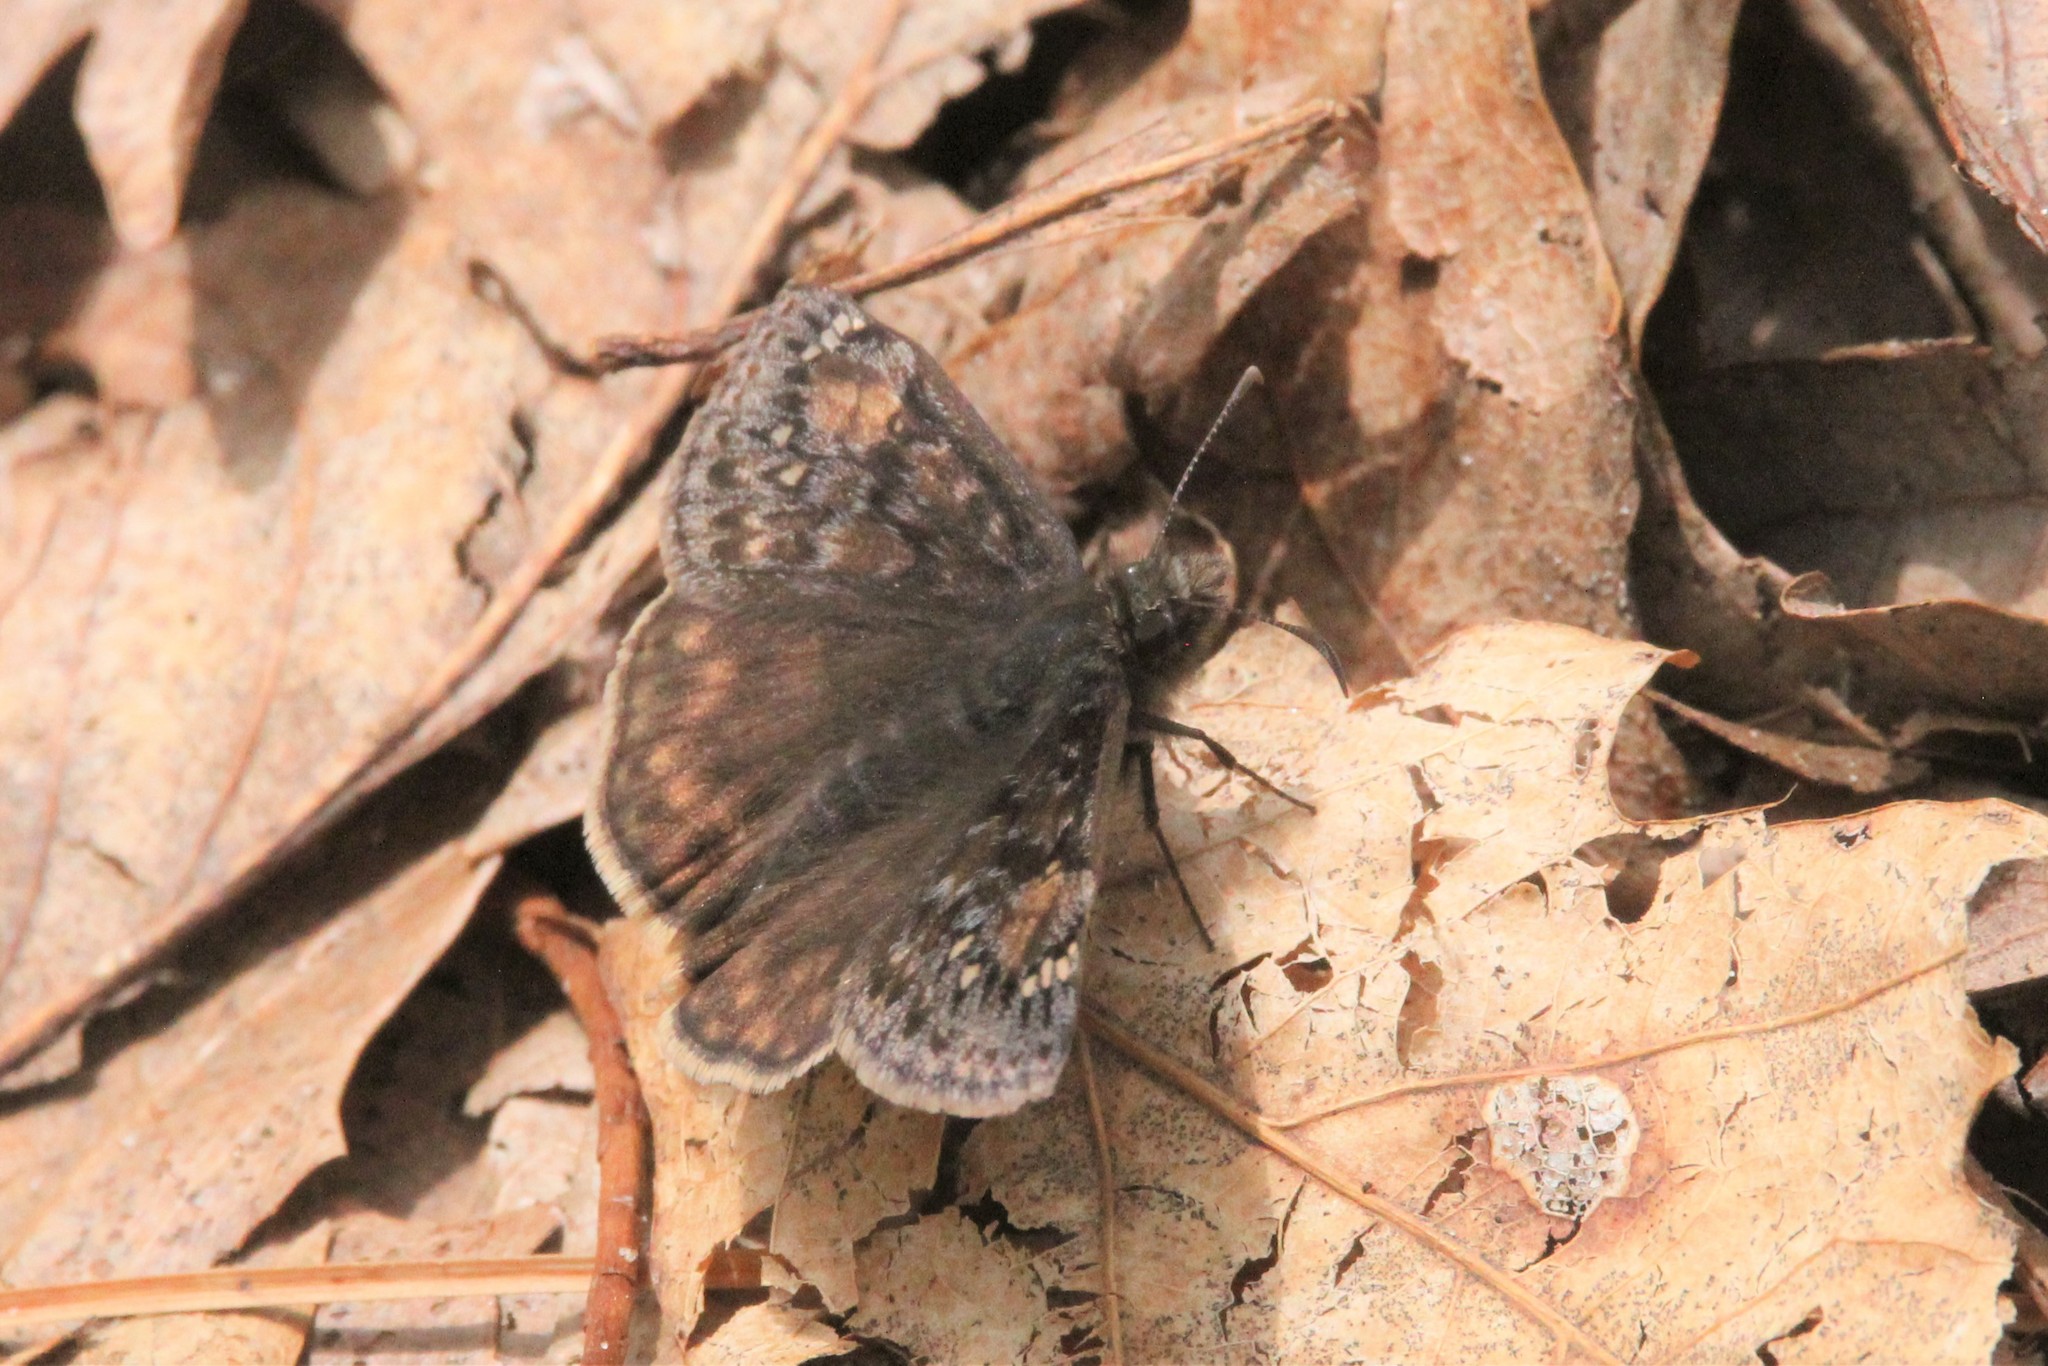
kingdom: Animalia
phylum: Arthropoda
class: Insecta
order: Lepidoptera
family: Hesperiidae
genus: Erynnis
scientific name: Erynnis juvenalis
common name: Juvenal's duskywing
